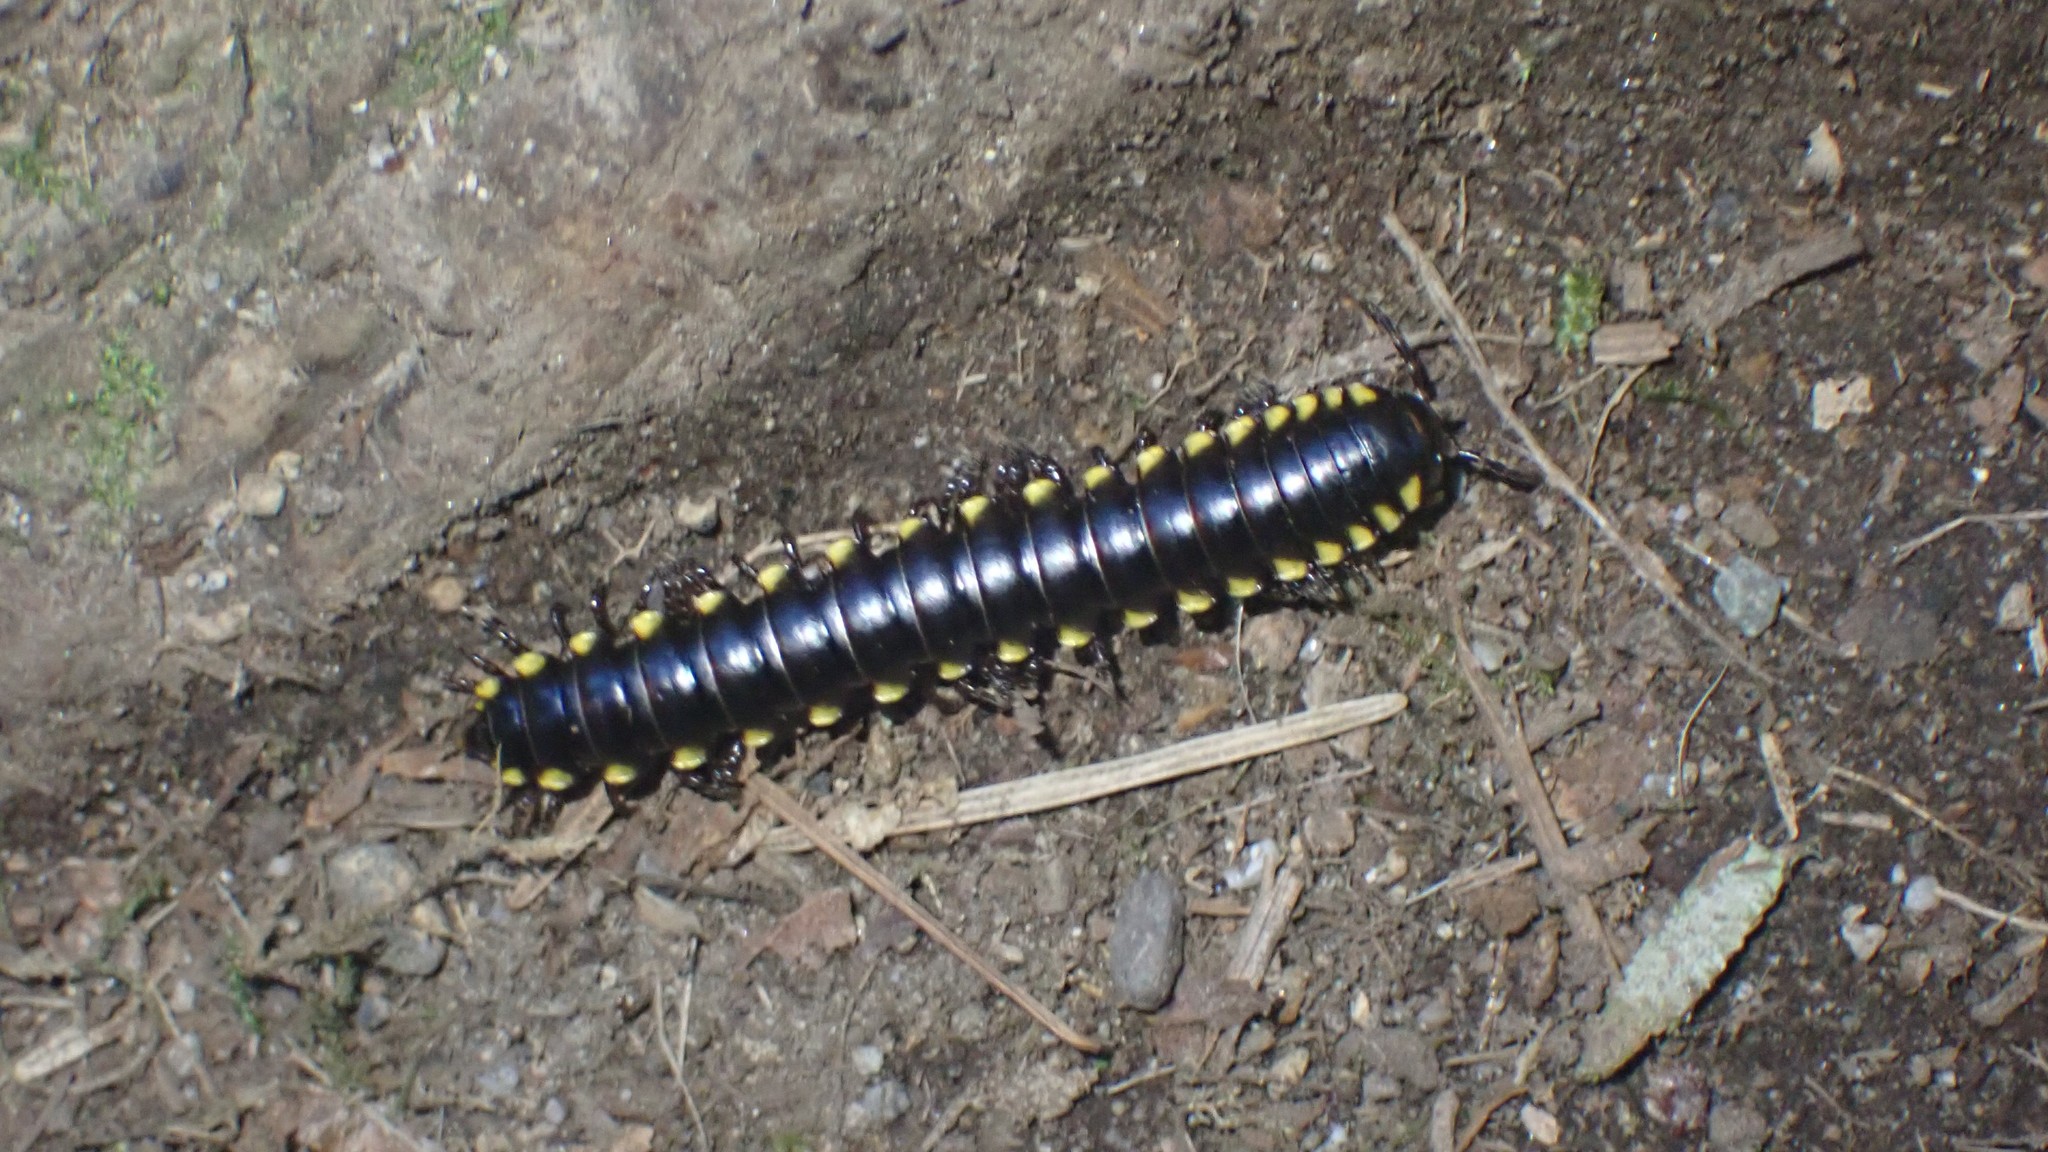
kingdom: Animalia
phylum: Arthropoda
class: Diplopoda
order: Polydesmida
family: Xystodesmidae
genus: Harpaphe
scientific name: Harpaphe haydeniana
